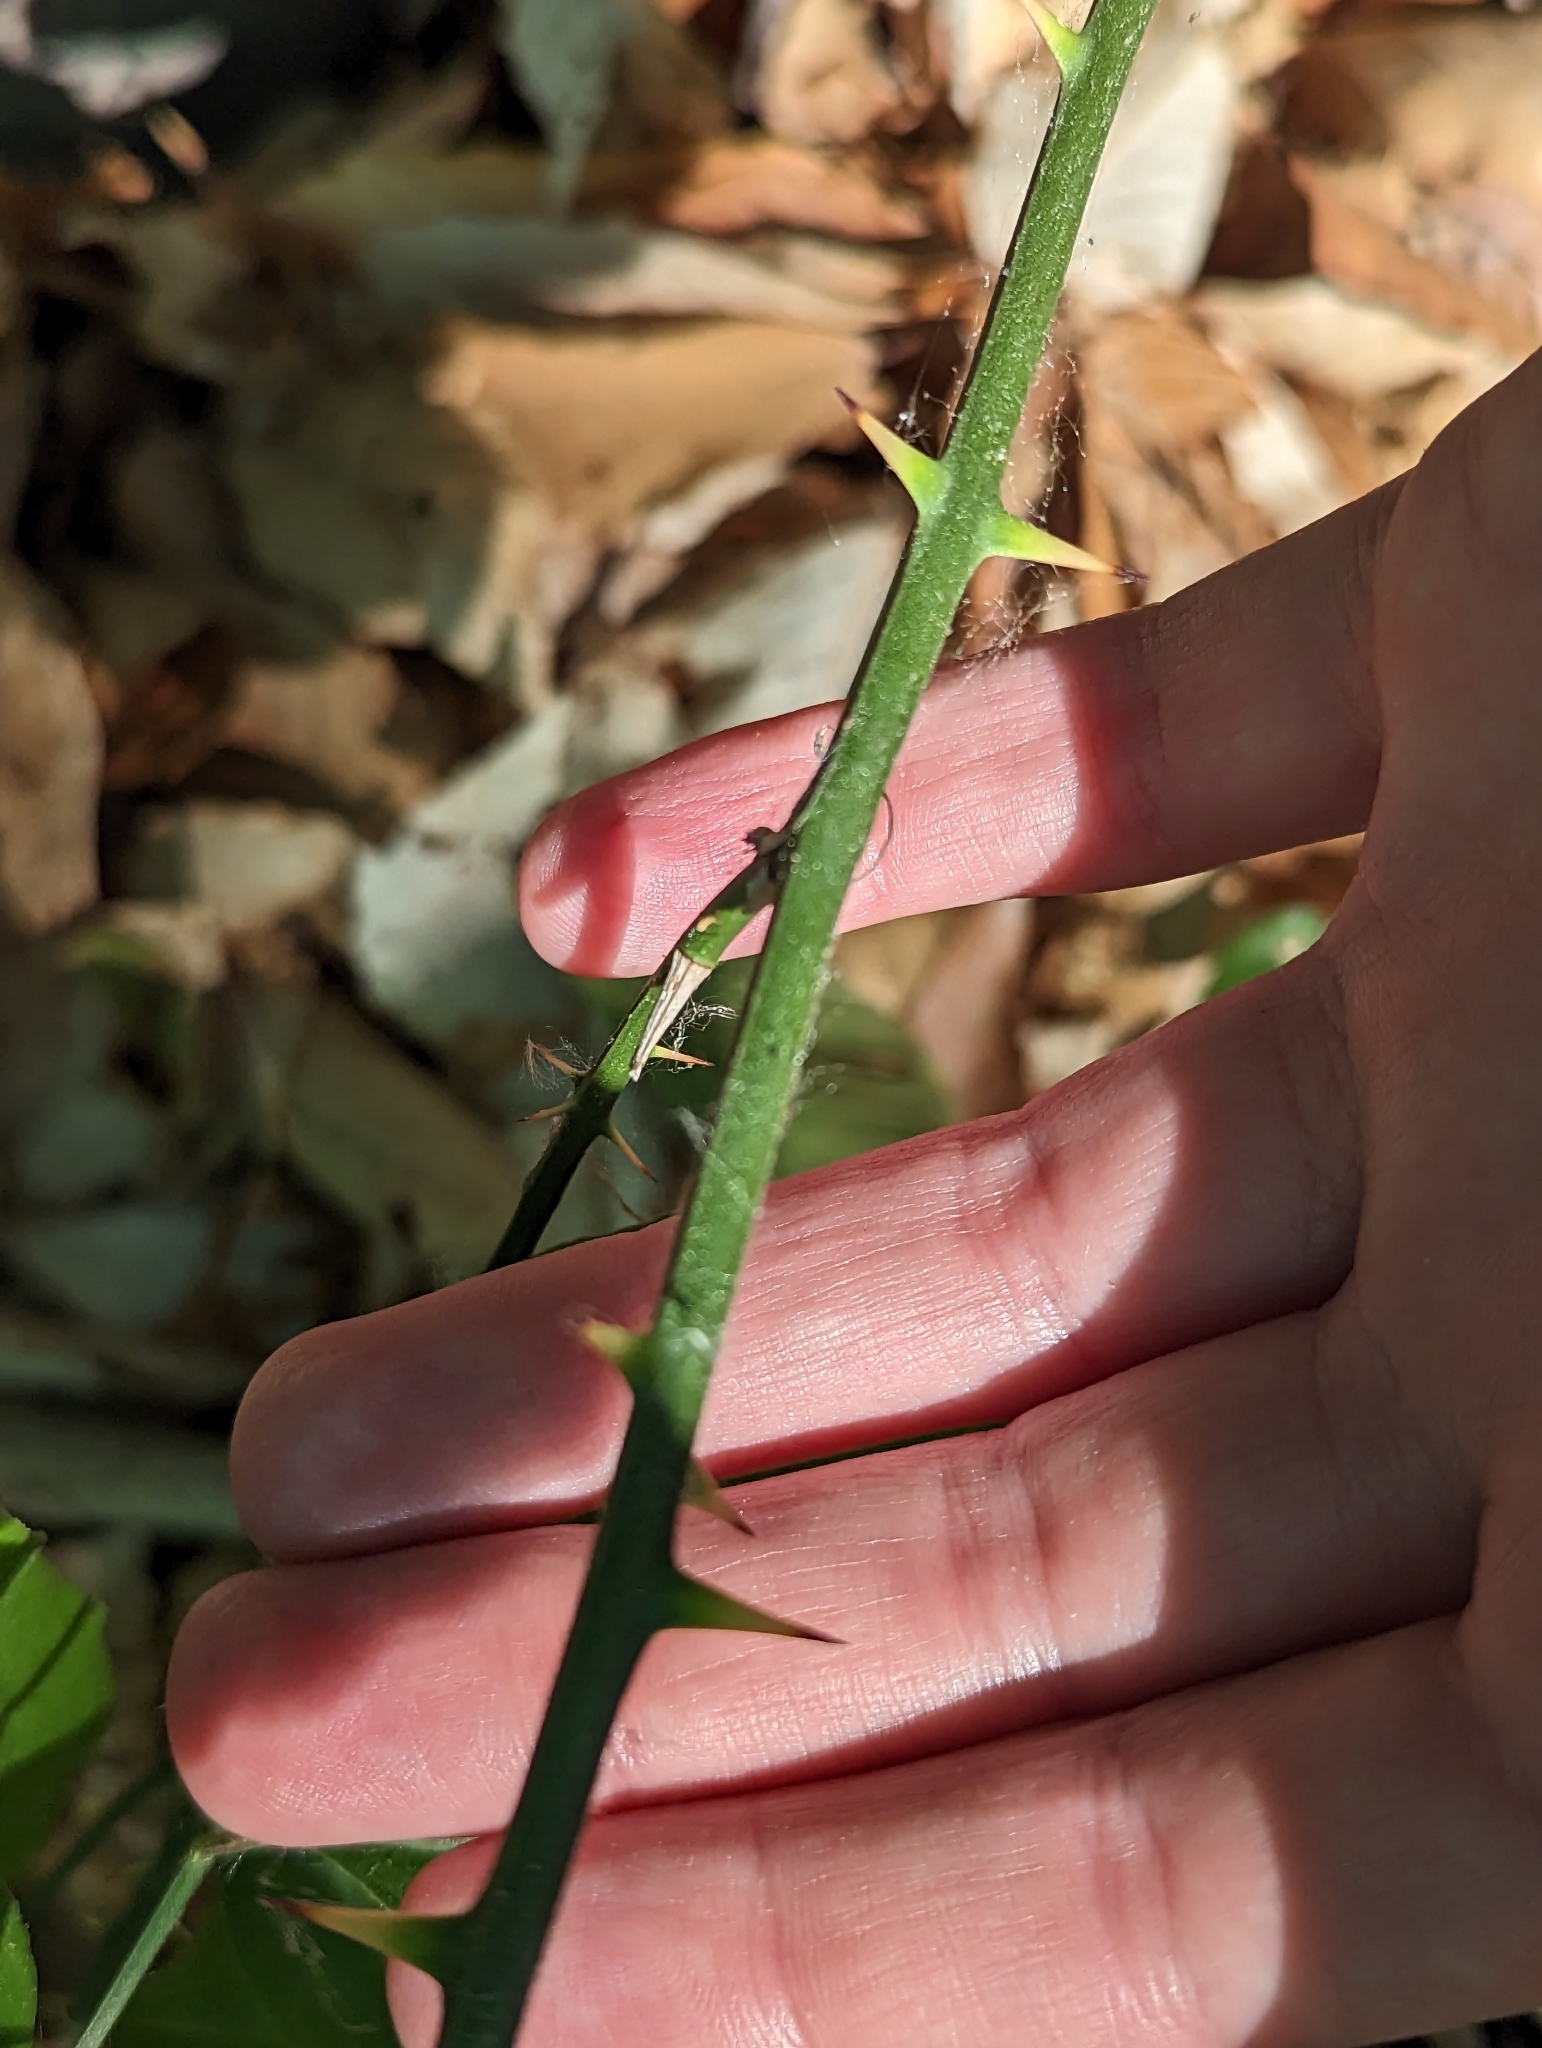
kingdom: Plantae
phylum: Tracheophyta
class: Liliopsida
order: Liliales
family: Smilacaceae
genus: Smilax
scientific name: Smilax rotundifolia
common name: Bullbriar
